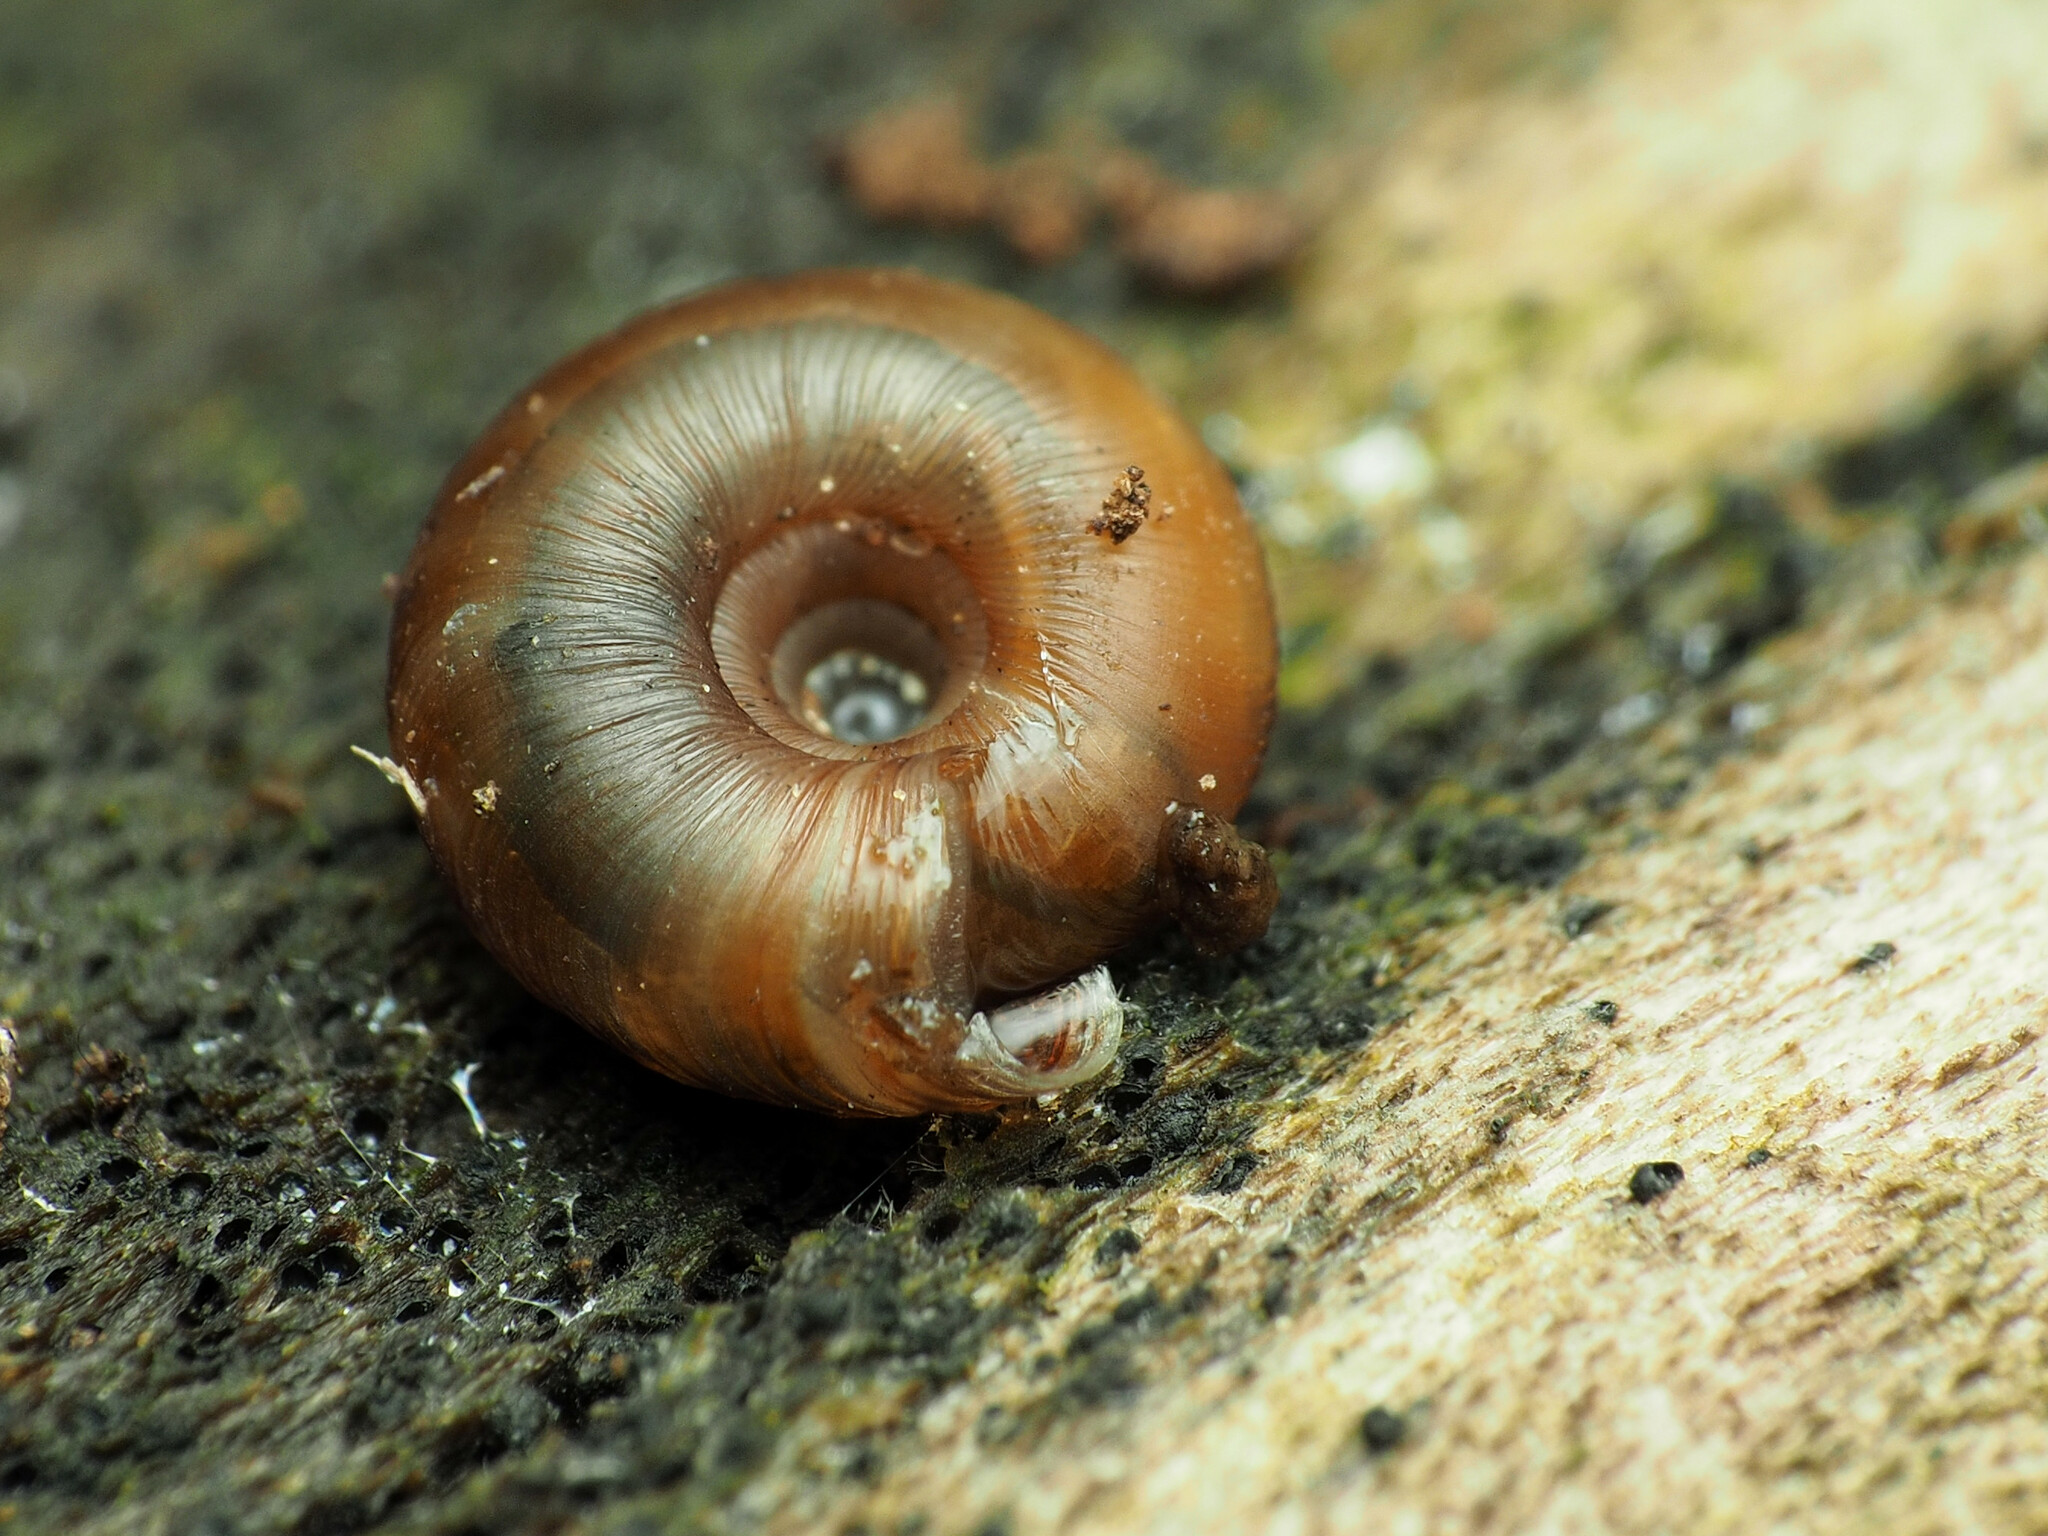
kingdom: Animalia
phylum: Mollusca
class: Gastropoda
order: Stylommatophora
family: Discidae
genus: Discus
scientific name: Discus rotundatus
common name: Rounded snail
